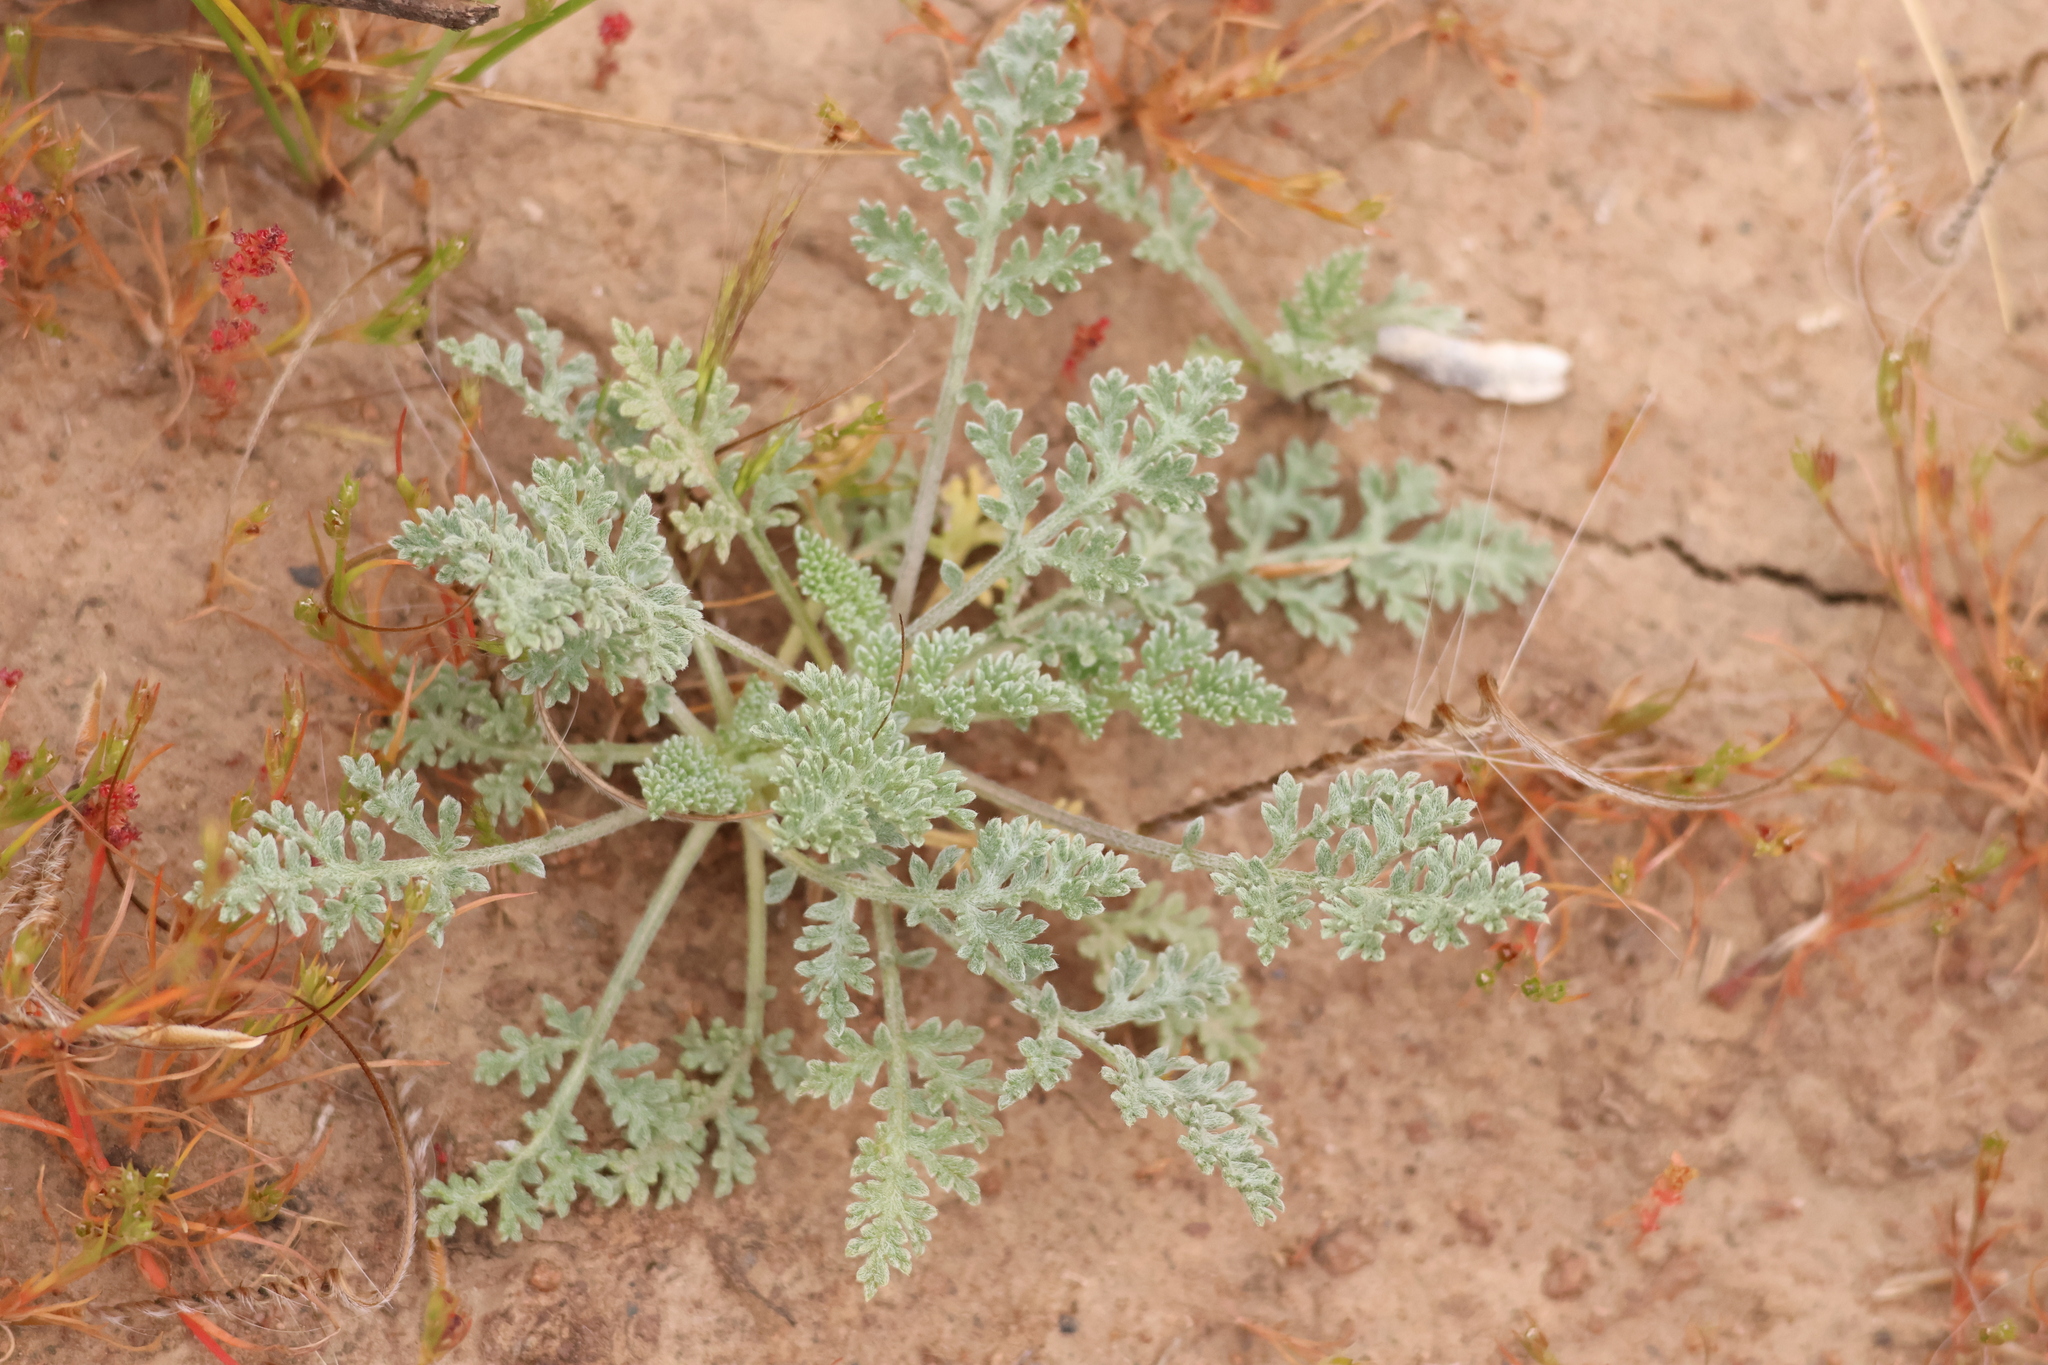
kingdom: Plantae
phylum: Tracheophyta
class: Magnoliopsida
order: Asterales
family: Asteraceae
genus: Ambrosia
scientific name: Ambrosia pumila
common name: San diego ambrosia
